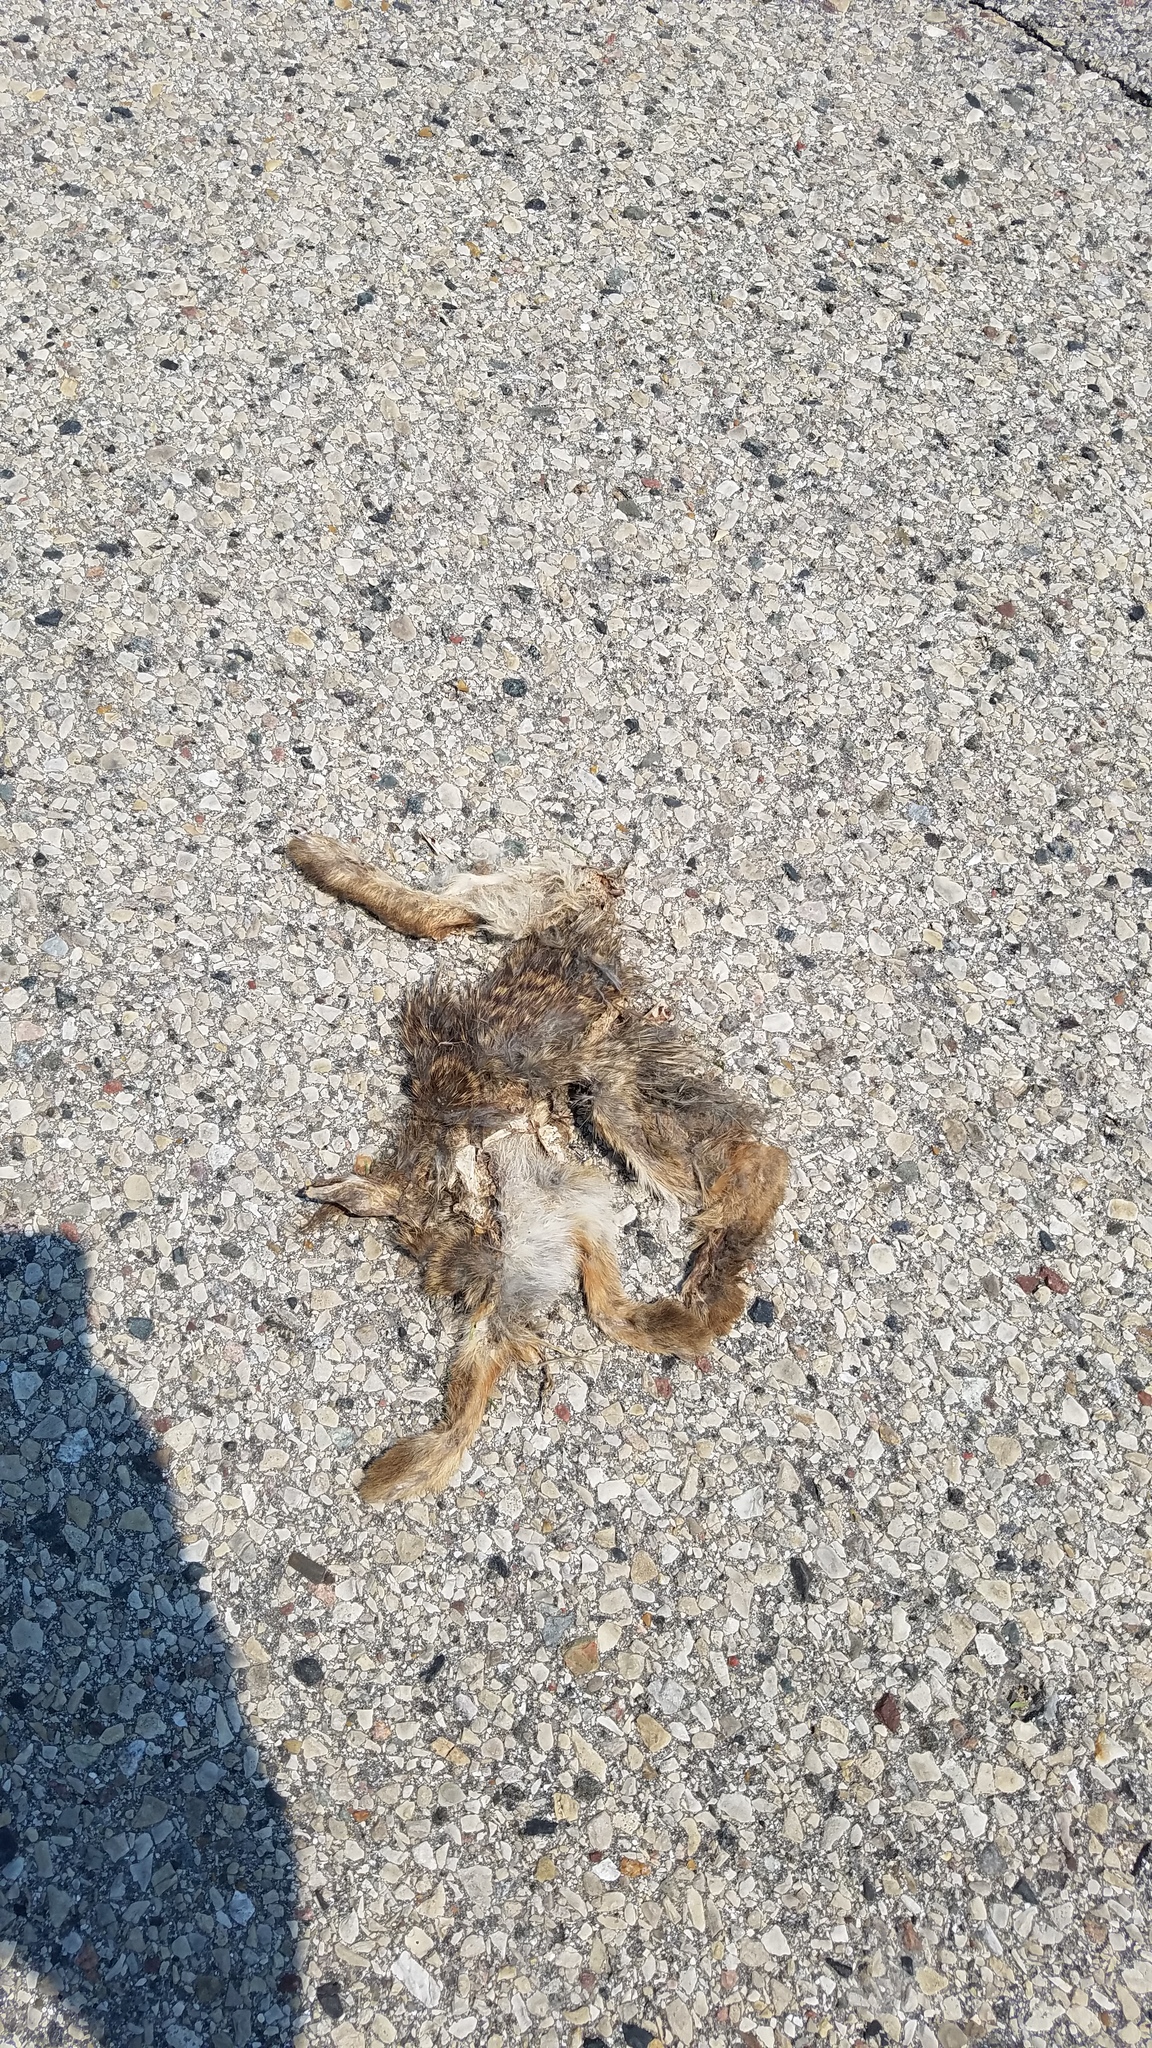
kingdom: Animalia
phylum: Chordata
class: Mammalia
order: Lagomorpha
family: Leporidae
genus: Sylvilagus
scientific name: Sylvilagus floridanus
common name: Eastern cottontail
